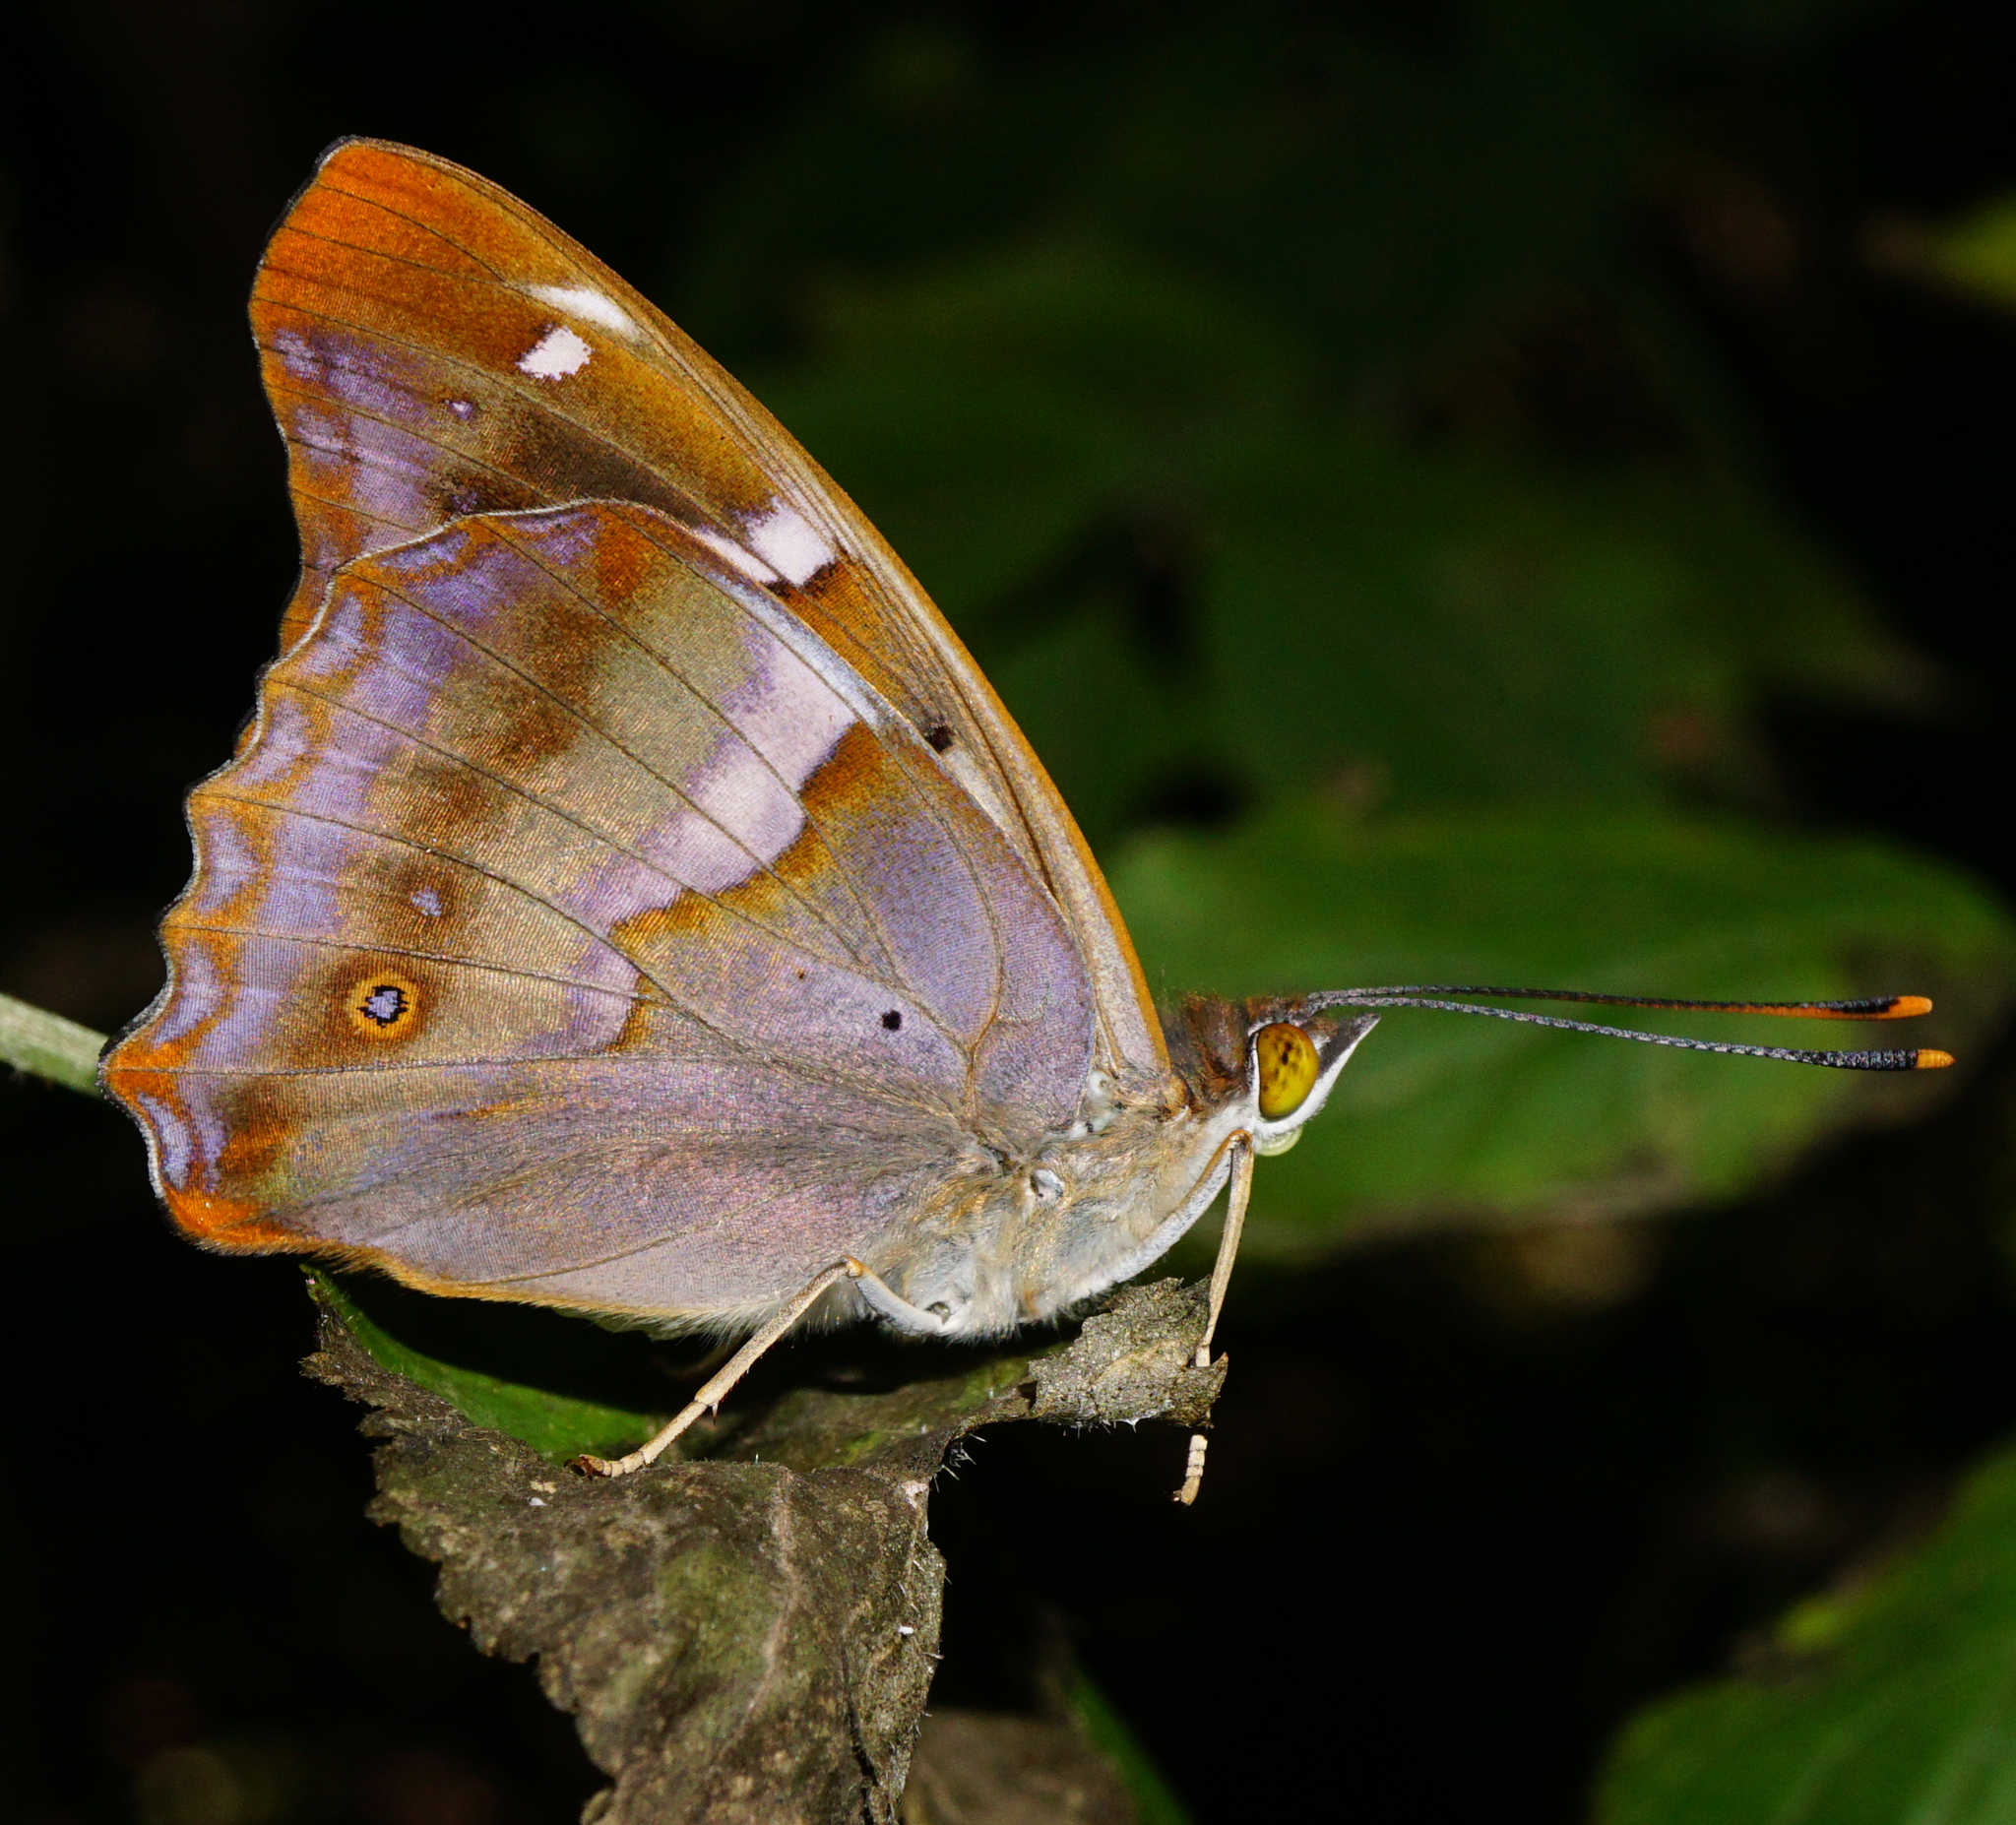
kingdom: Animalia
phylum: Arthropoda
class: Insecta
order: Lepidoptera
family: Nymphalidae
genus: Apatura
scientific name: Apatura ilia
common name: Lesser purple emperor
